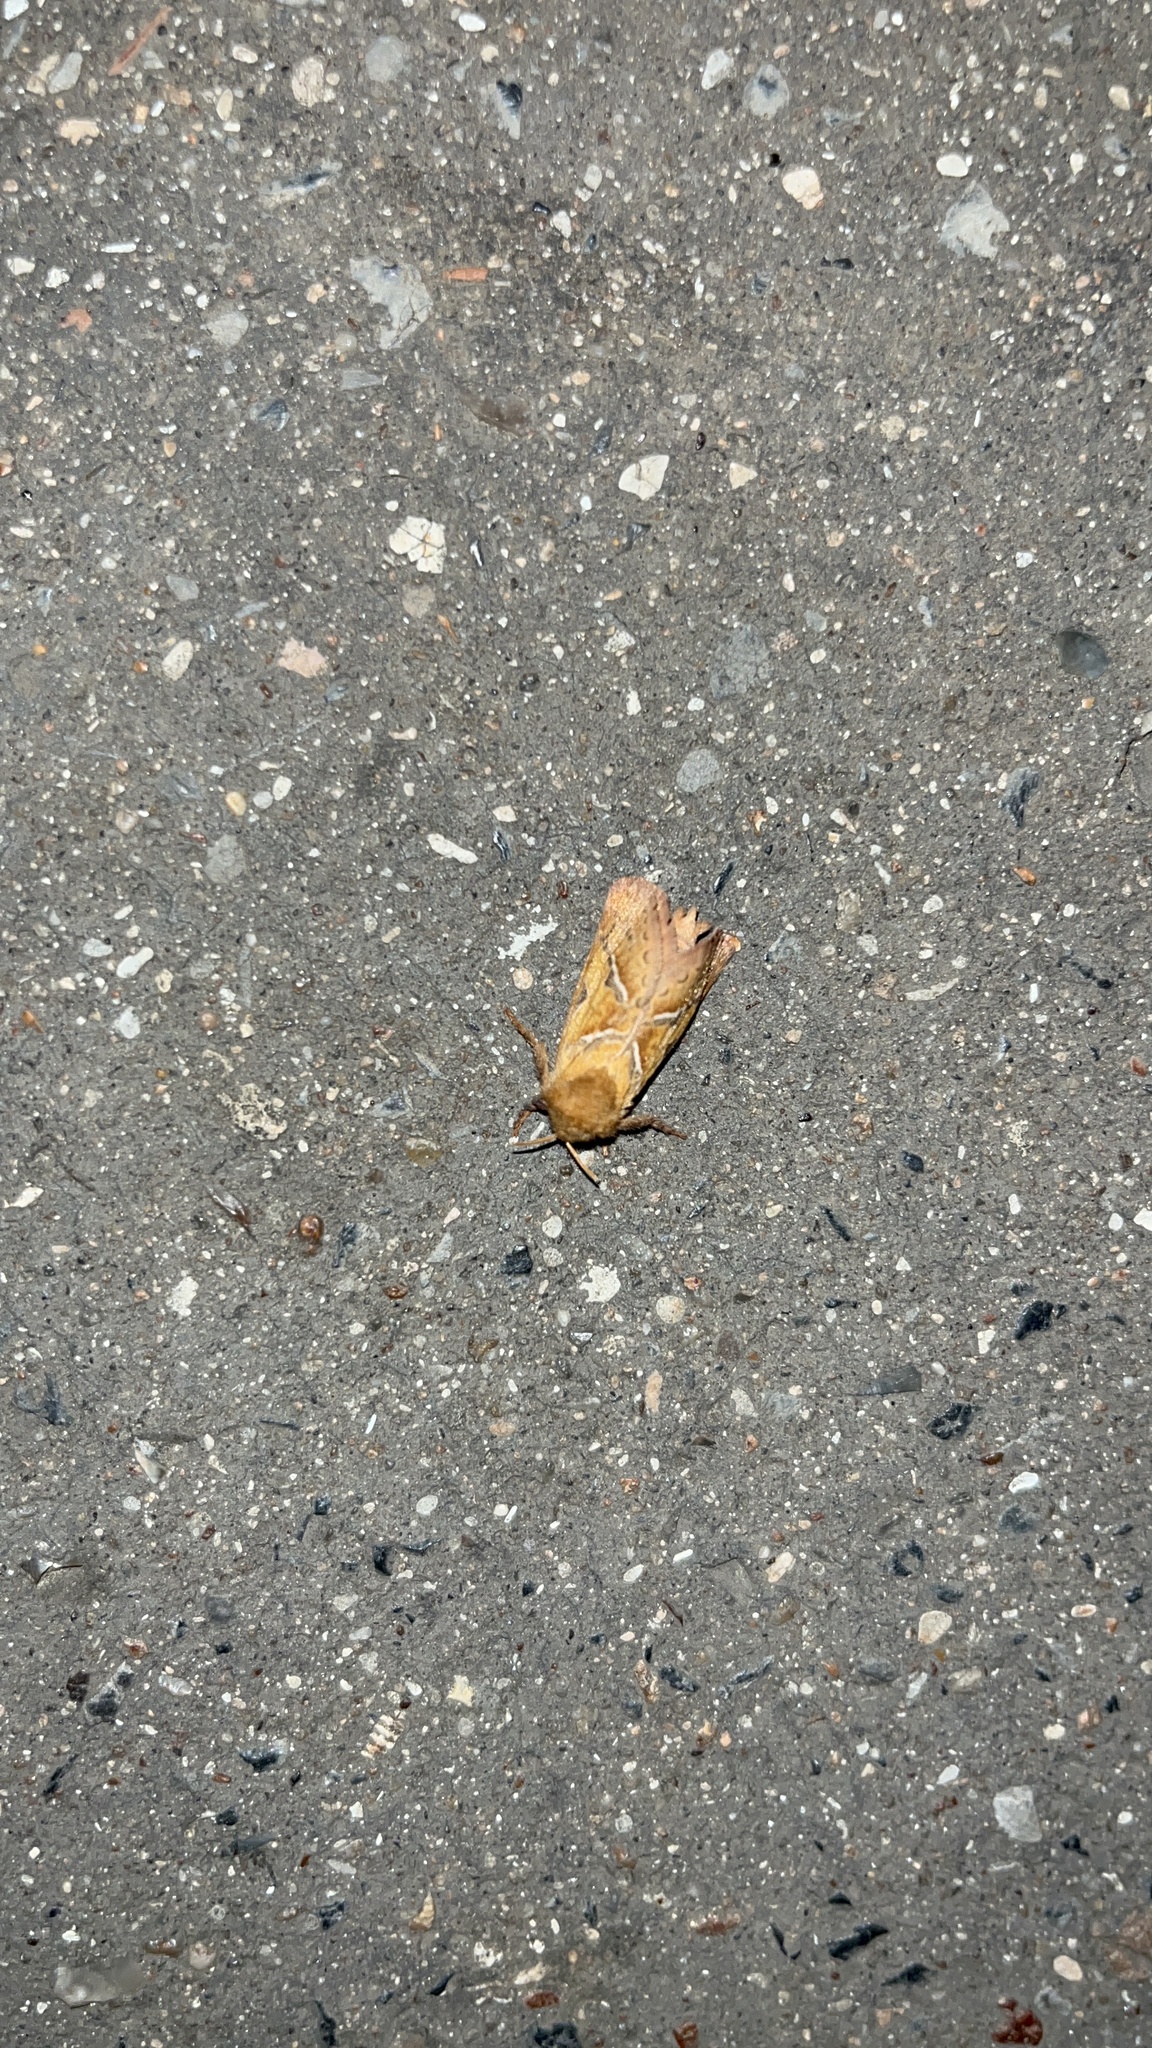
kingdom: Animalia
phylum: Arthropoda
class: Insecta
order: Lepidoptera
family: Hepialidae
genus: Triodia
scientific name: Triodia sylvina
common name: Orange swift
